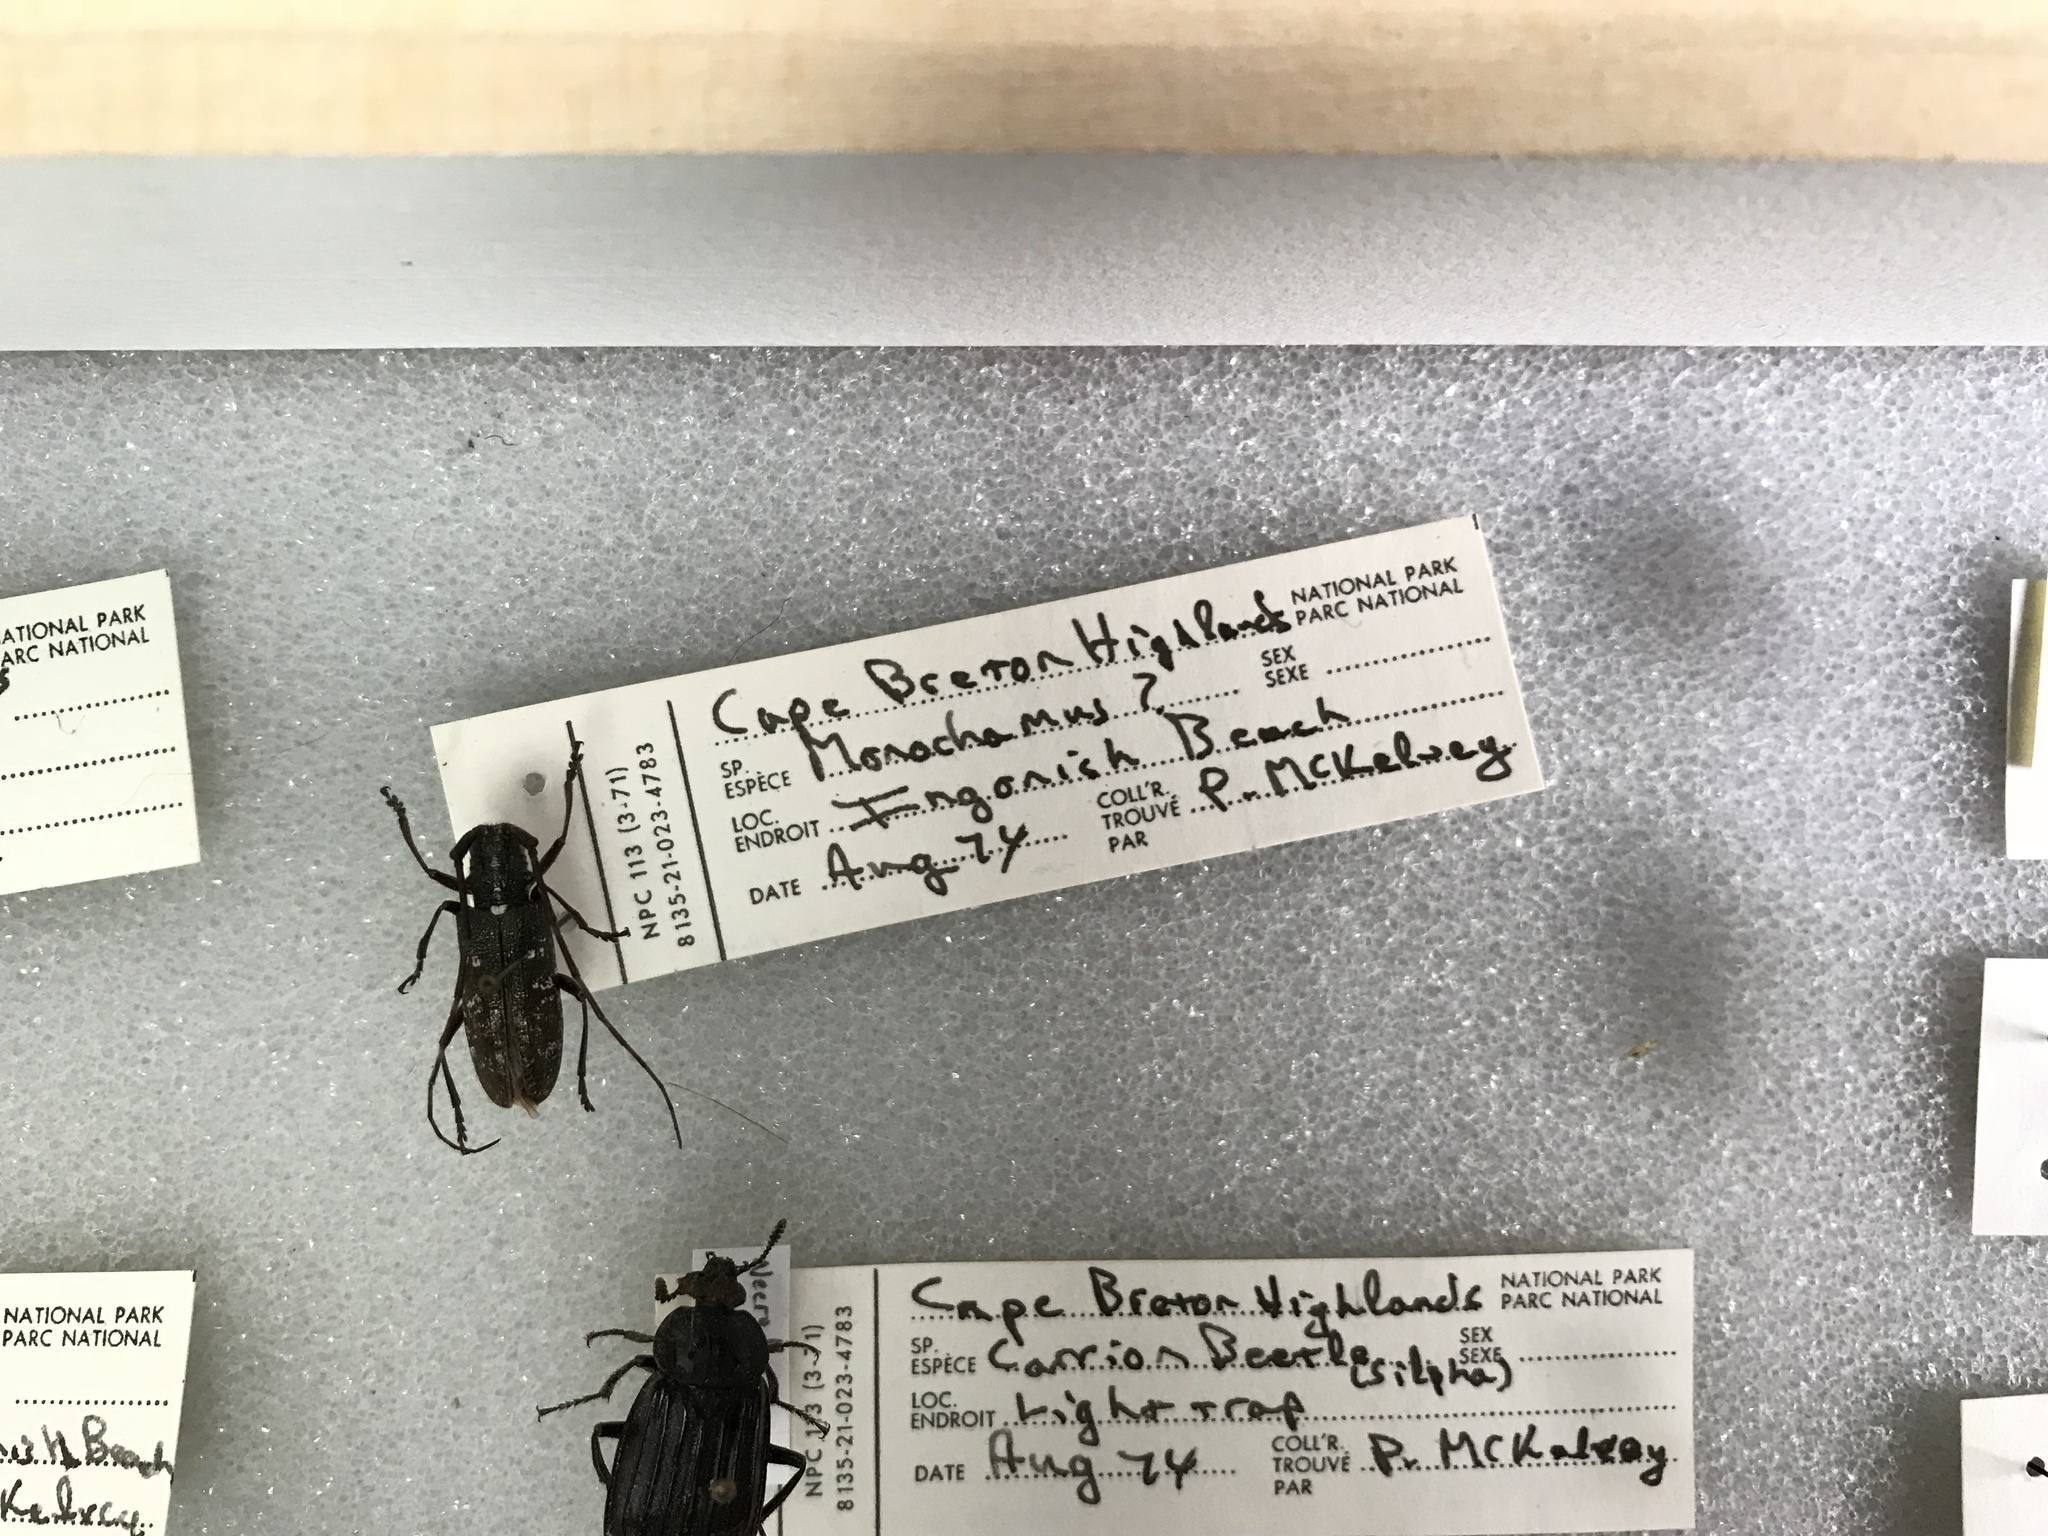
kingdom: Animalia
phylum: Arthropoda
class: Insecta
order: Coleoptera
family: Cerambycidae
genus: Monochamus
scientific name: Monochamus scutellatus
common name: White-spotted sawyer beetle
